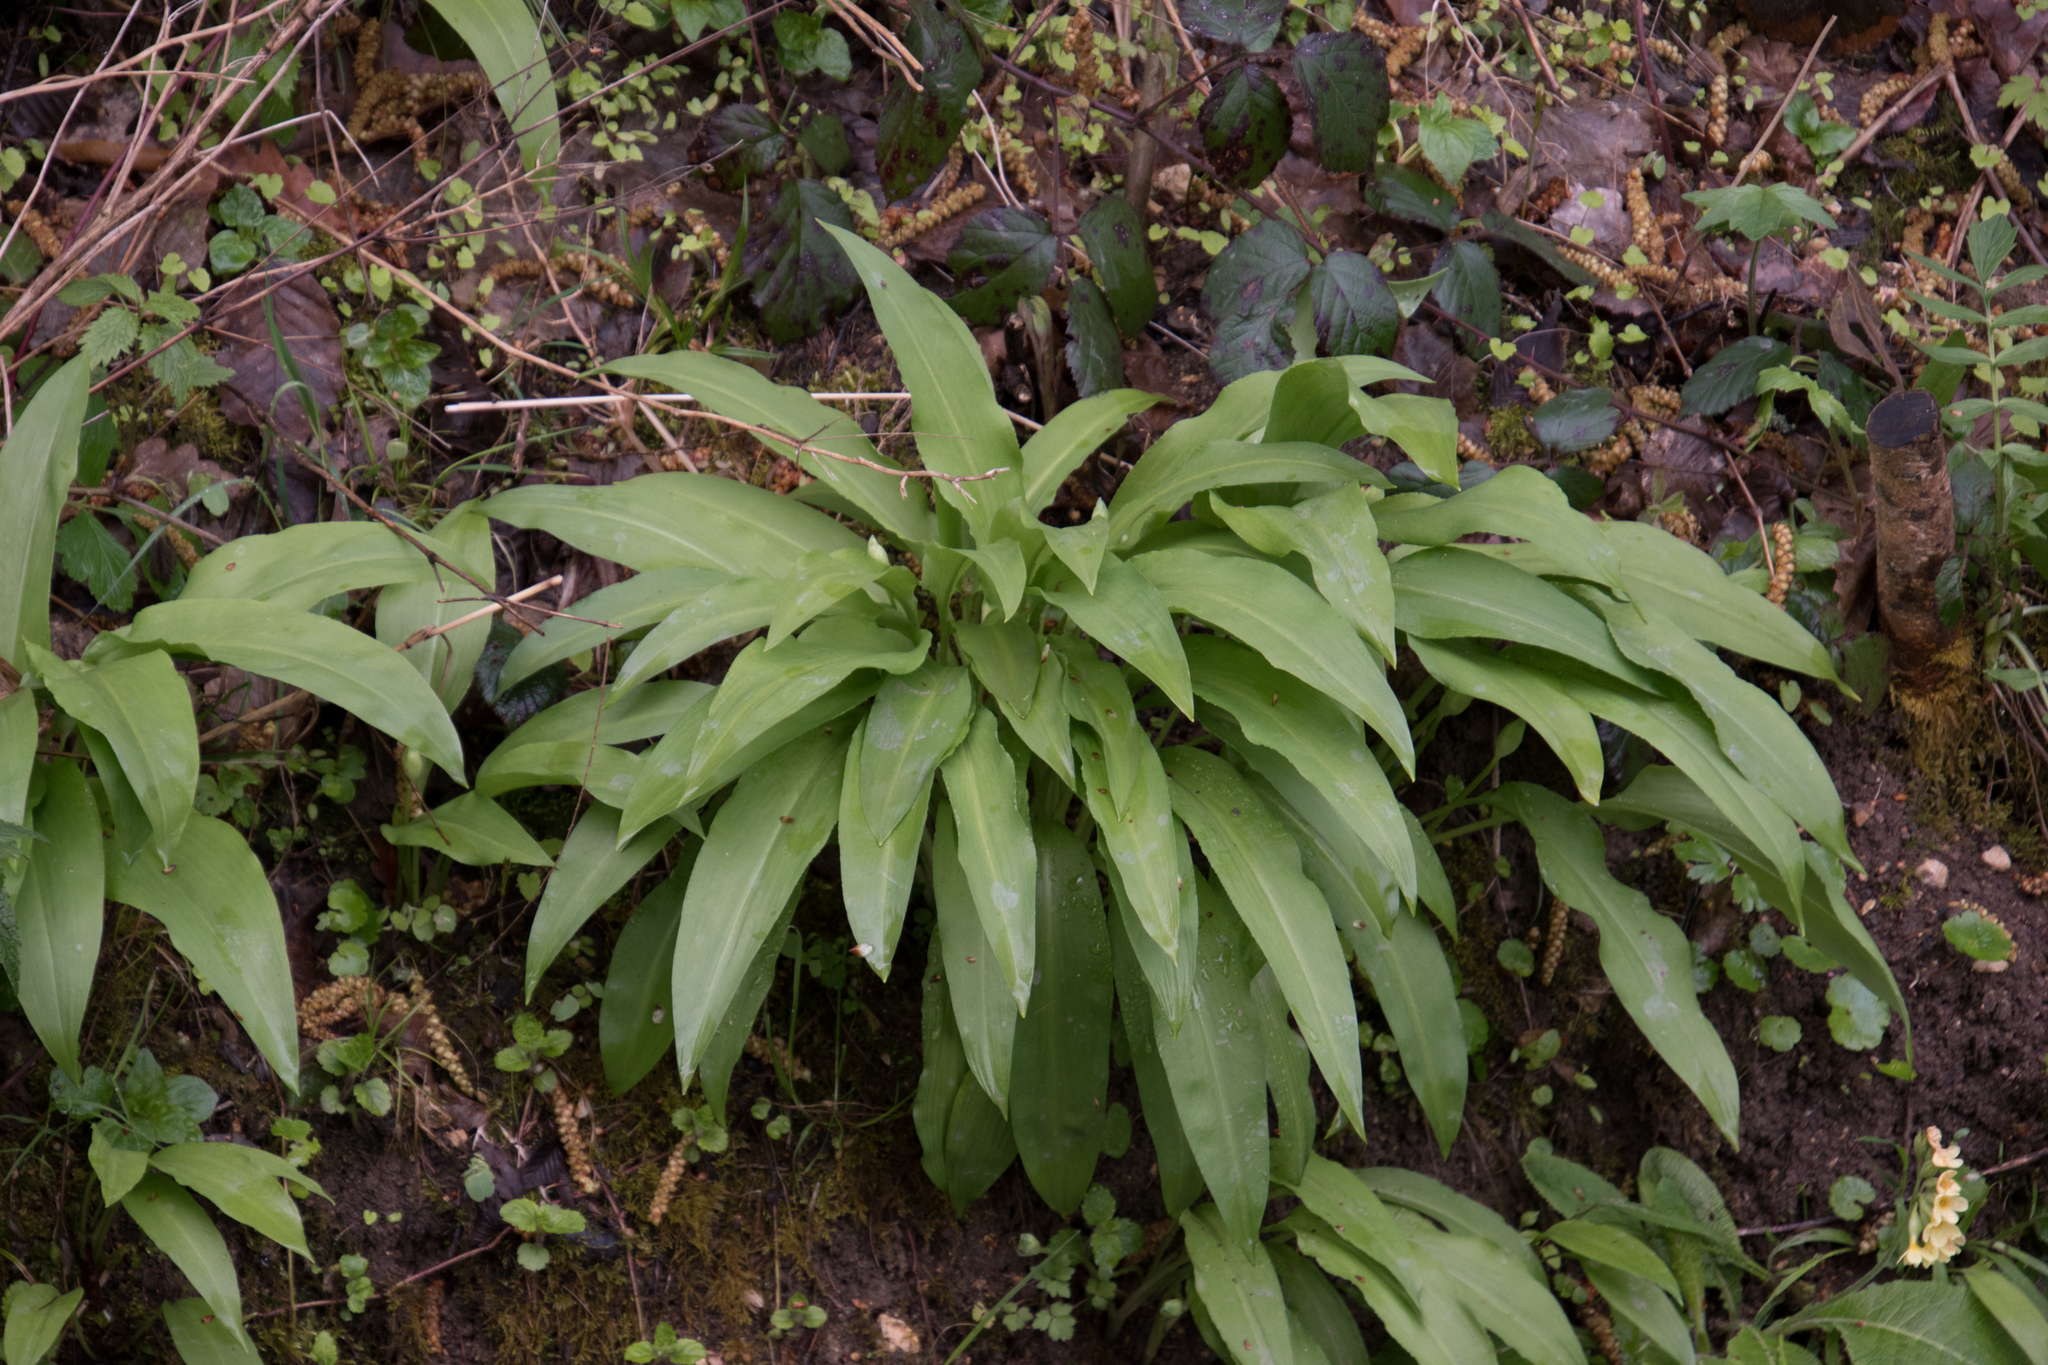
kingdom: Plantae
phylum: Tracheophyta
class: Liliopsida
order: Asparagales
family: Amaryllidaceae
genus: Allium
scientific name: Allium ursinum
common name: Ramsons
